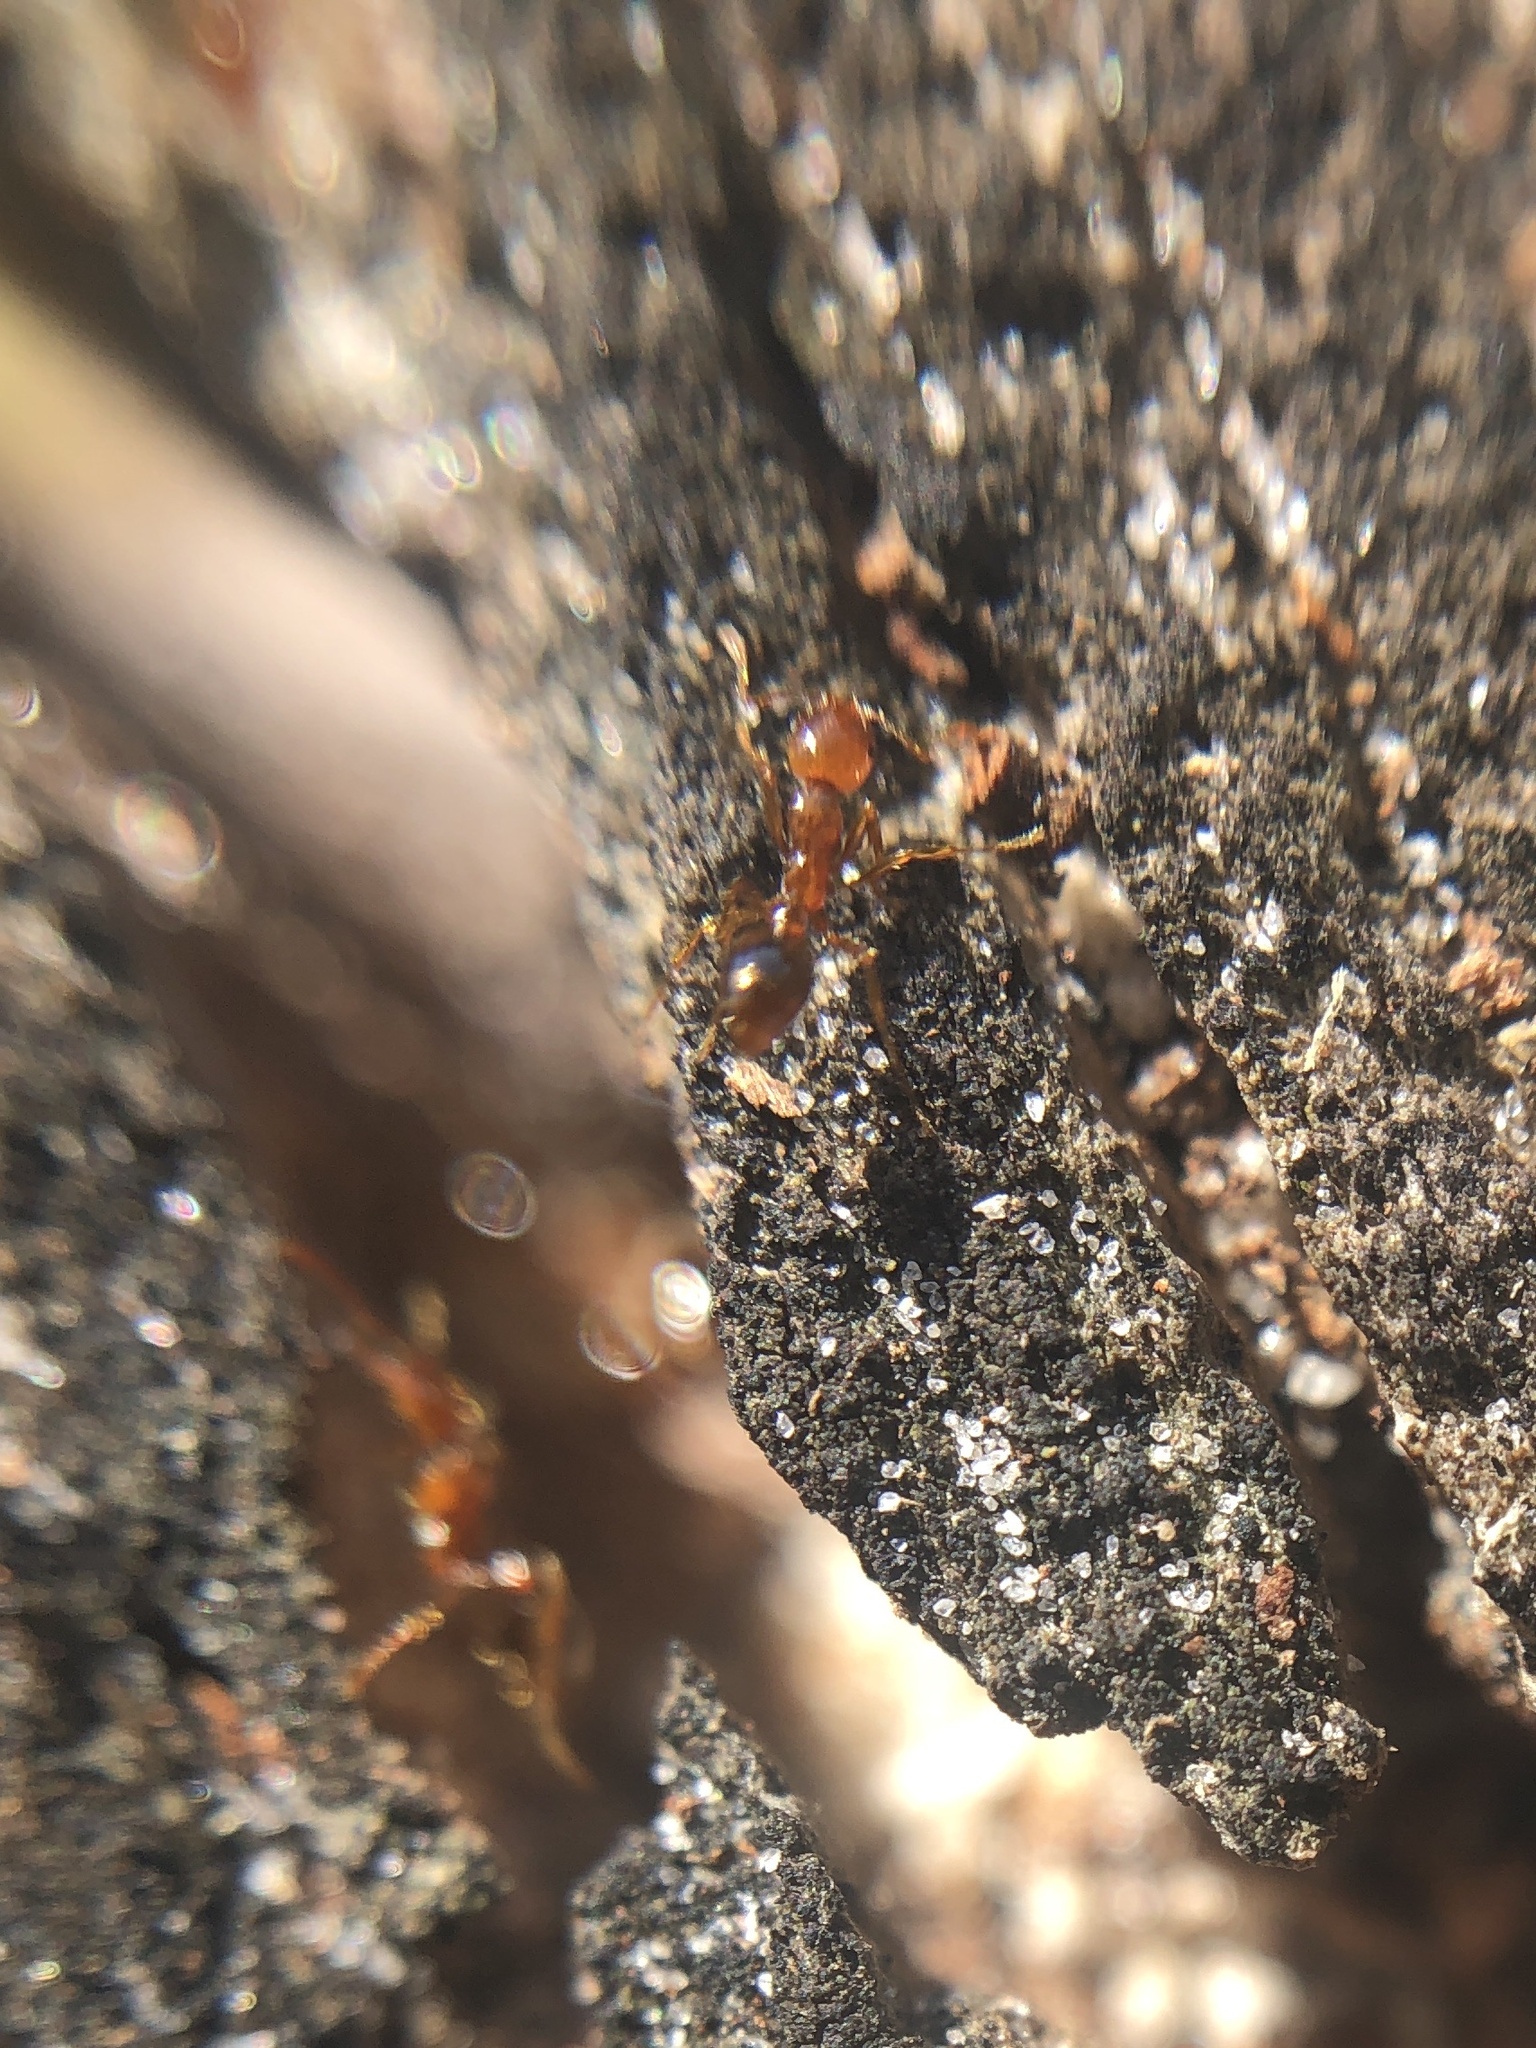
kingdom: Animalia
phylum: Arthropoda
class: Insecta
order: Hymenoptera
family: Formicidae
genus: Solenopsis
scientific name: Solenopsis invicta
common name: Red imported fire ant
